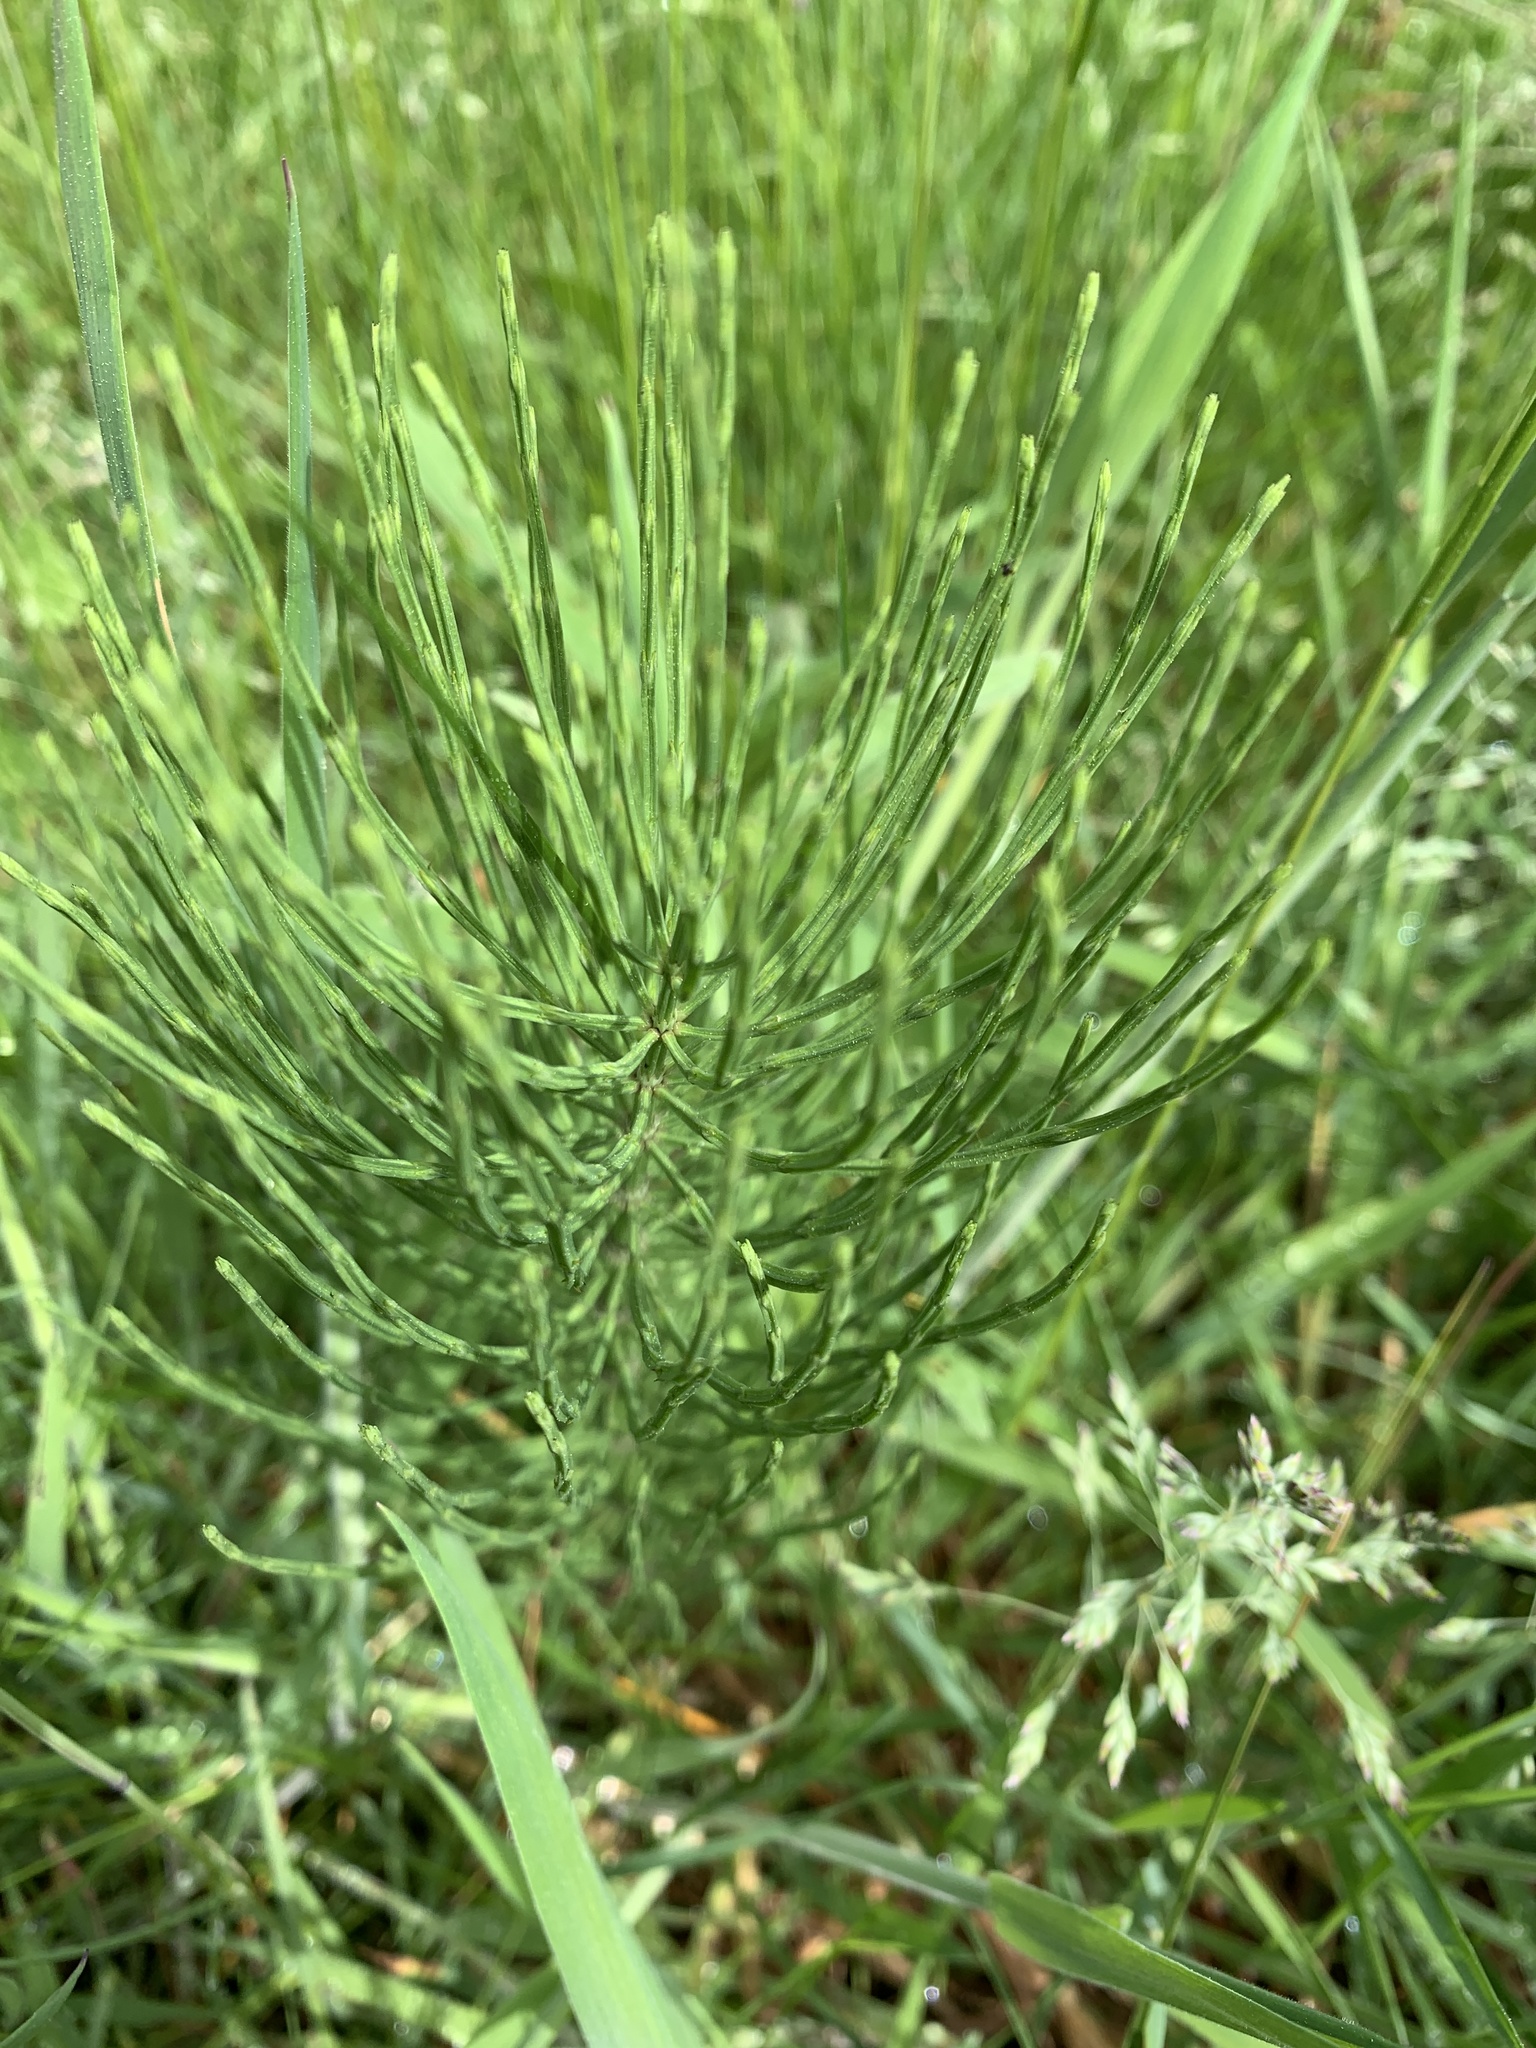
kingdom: Plantae
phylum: Tracheophyta
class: Polypodiopsida
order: Equisetales
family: Equisetaceae
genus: Equisetum
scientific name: Equisetum arvense
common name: Field horsetail
